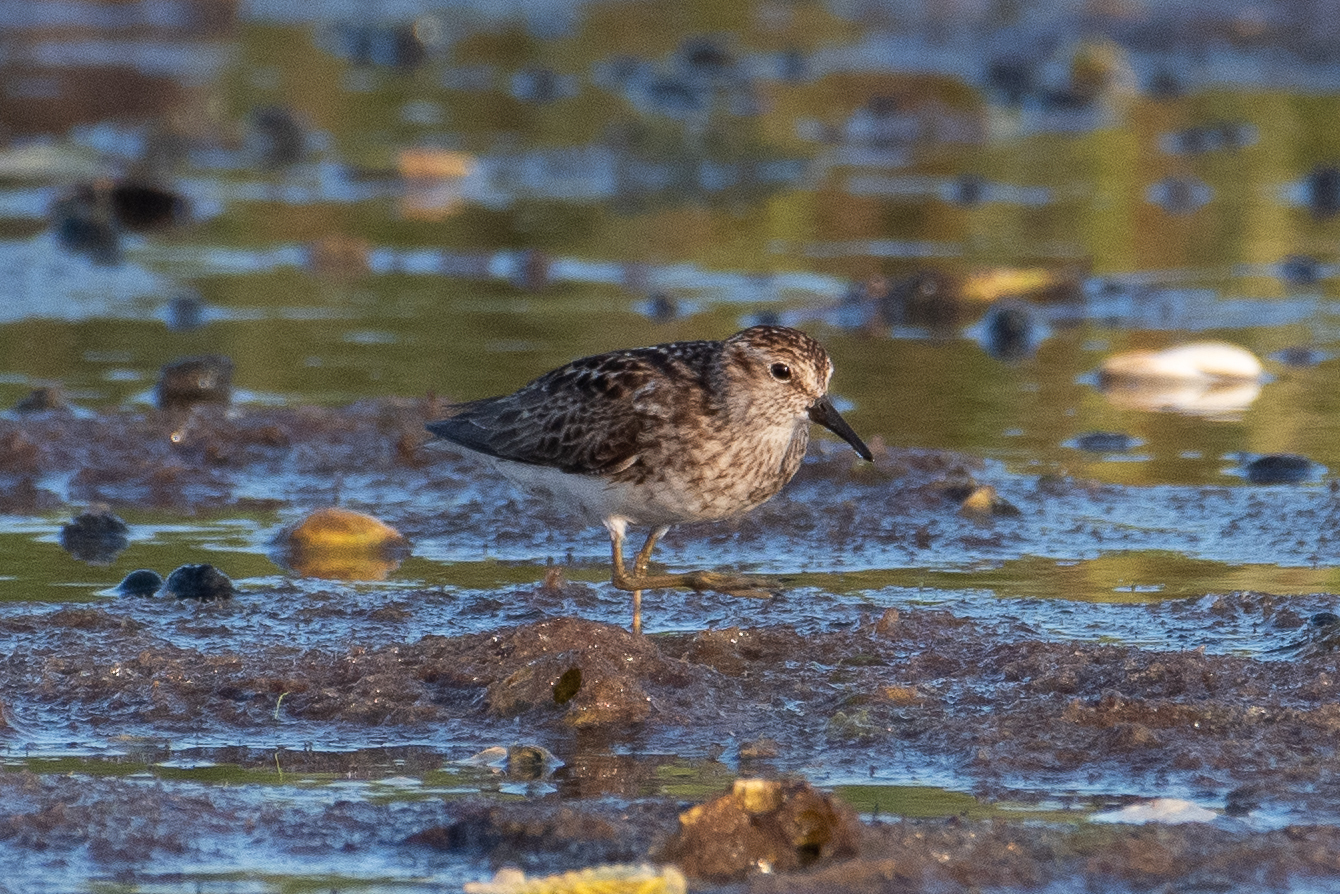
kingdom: Animalia
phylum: Chordata
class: Aves
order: Charadriiformes
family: Scolopacidae
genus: Calidris
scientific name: Calidris minutilla
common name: Least sandpiper
